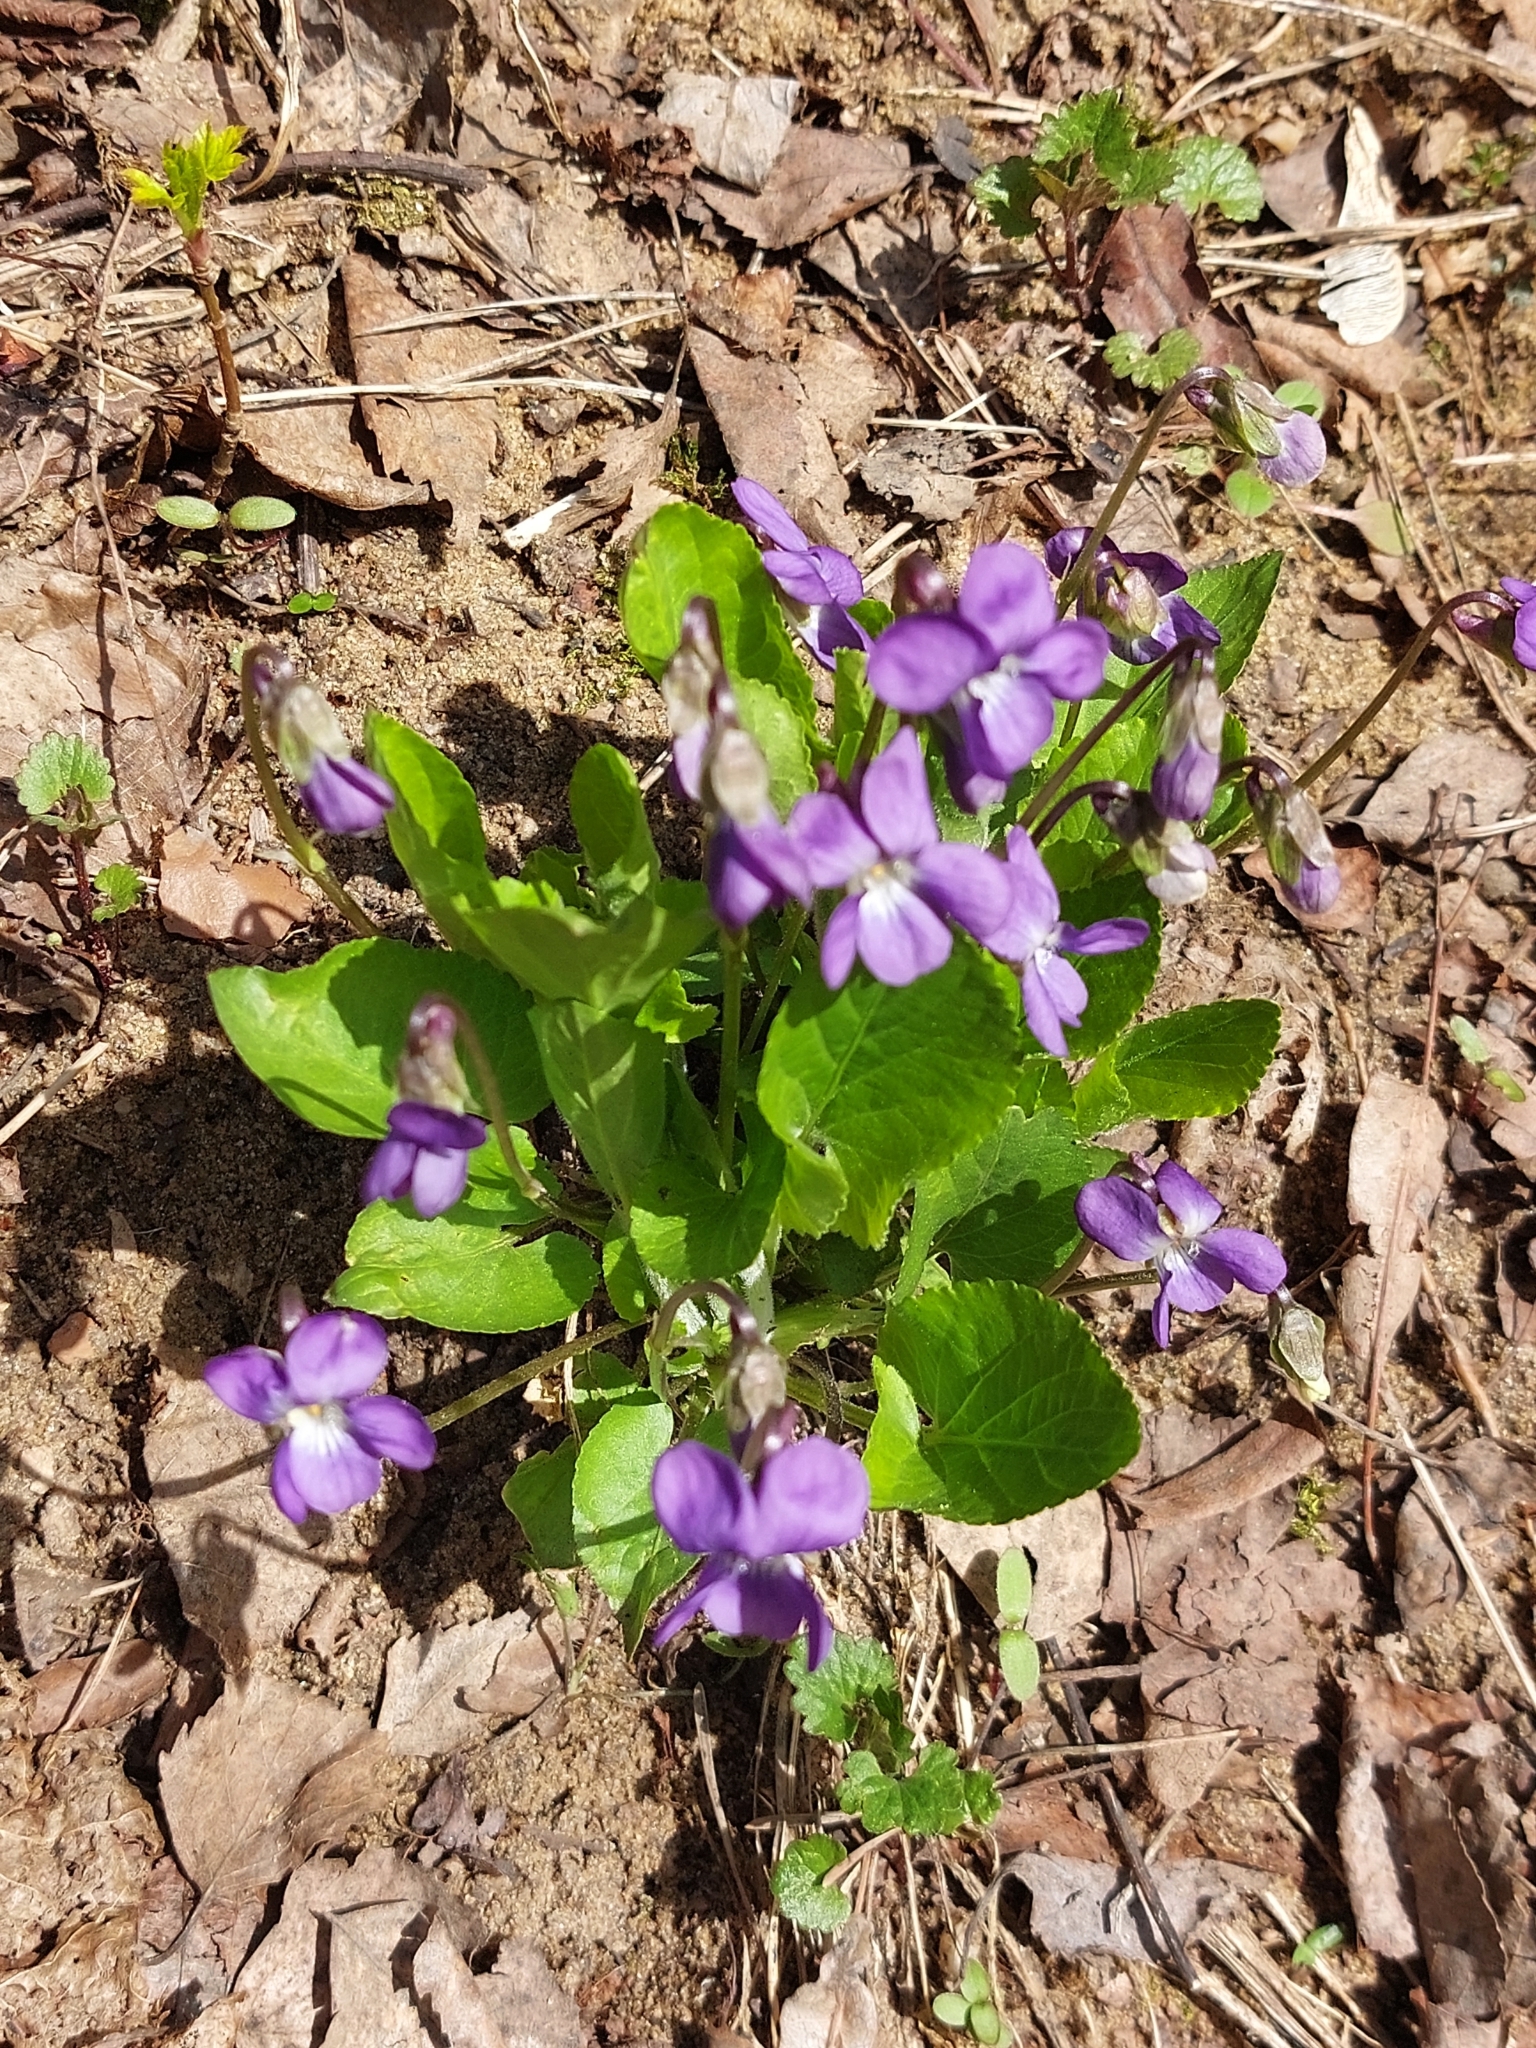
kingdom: Plantae
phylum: Tracheophyta
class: Magnoliopsida
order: Malpighiales
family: Violaceae
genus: Viola
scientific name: Viola hirta
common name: Hairy violet
